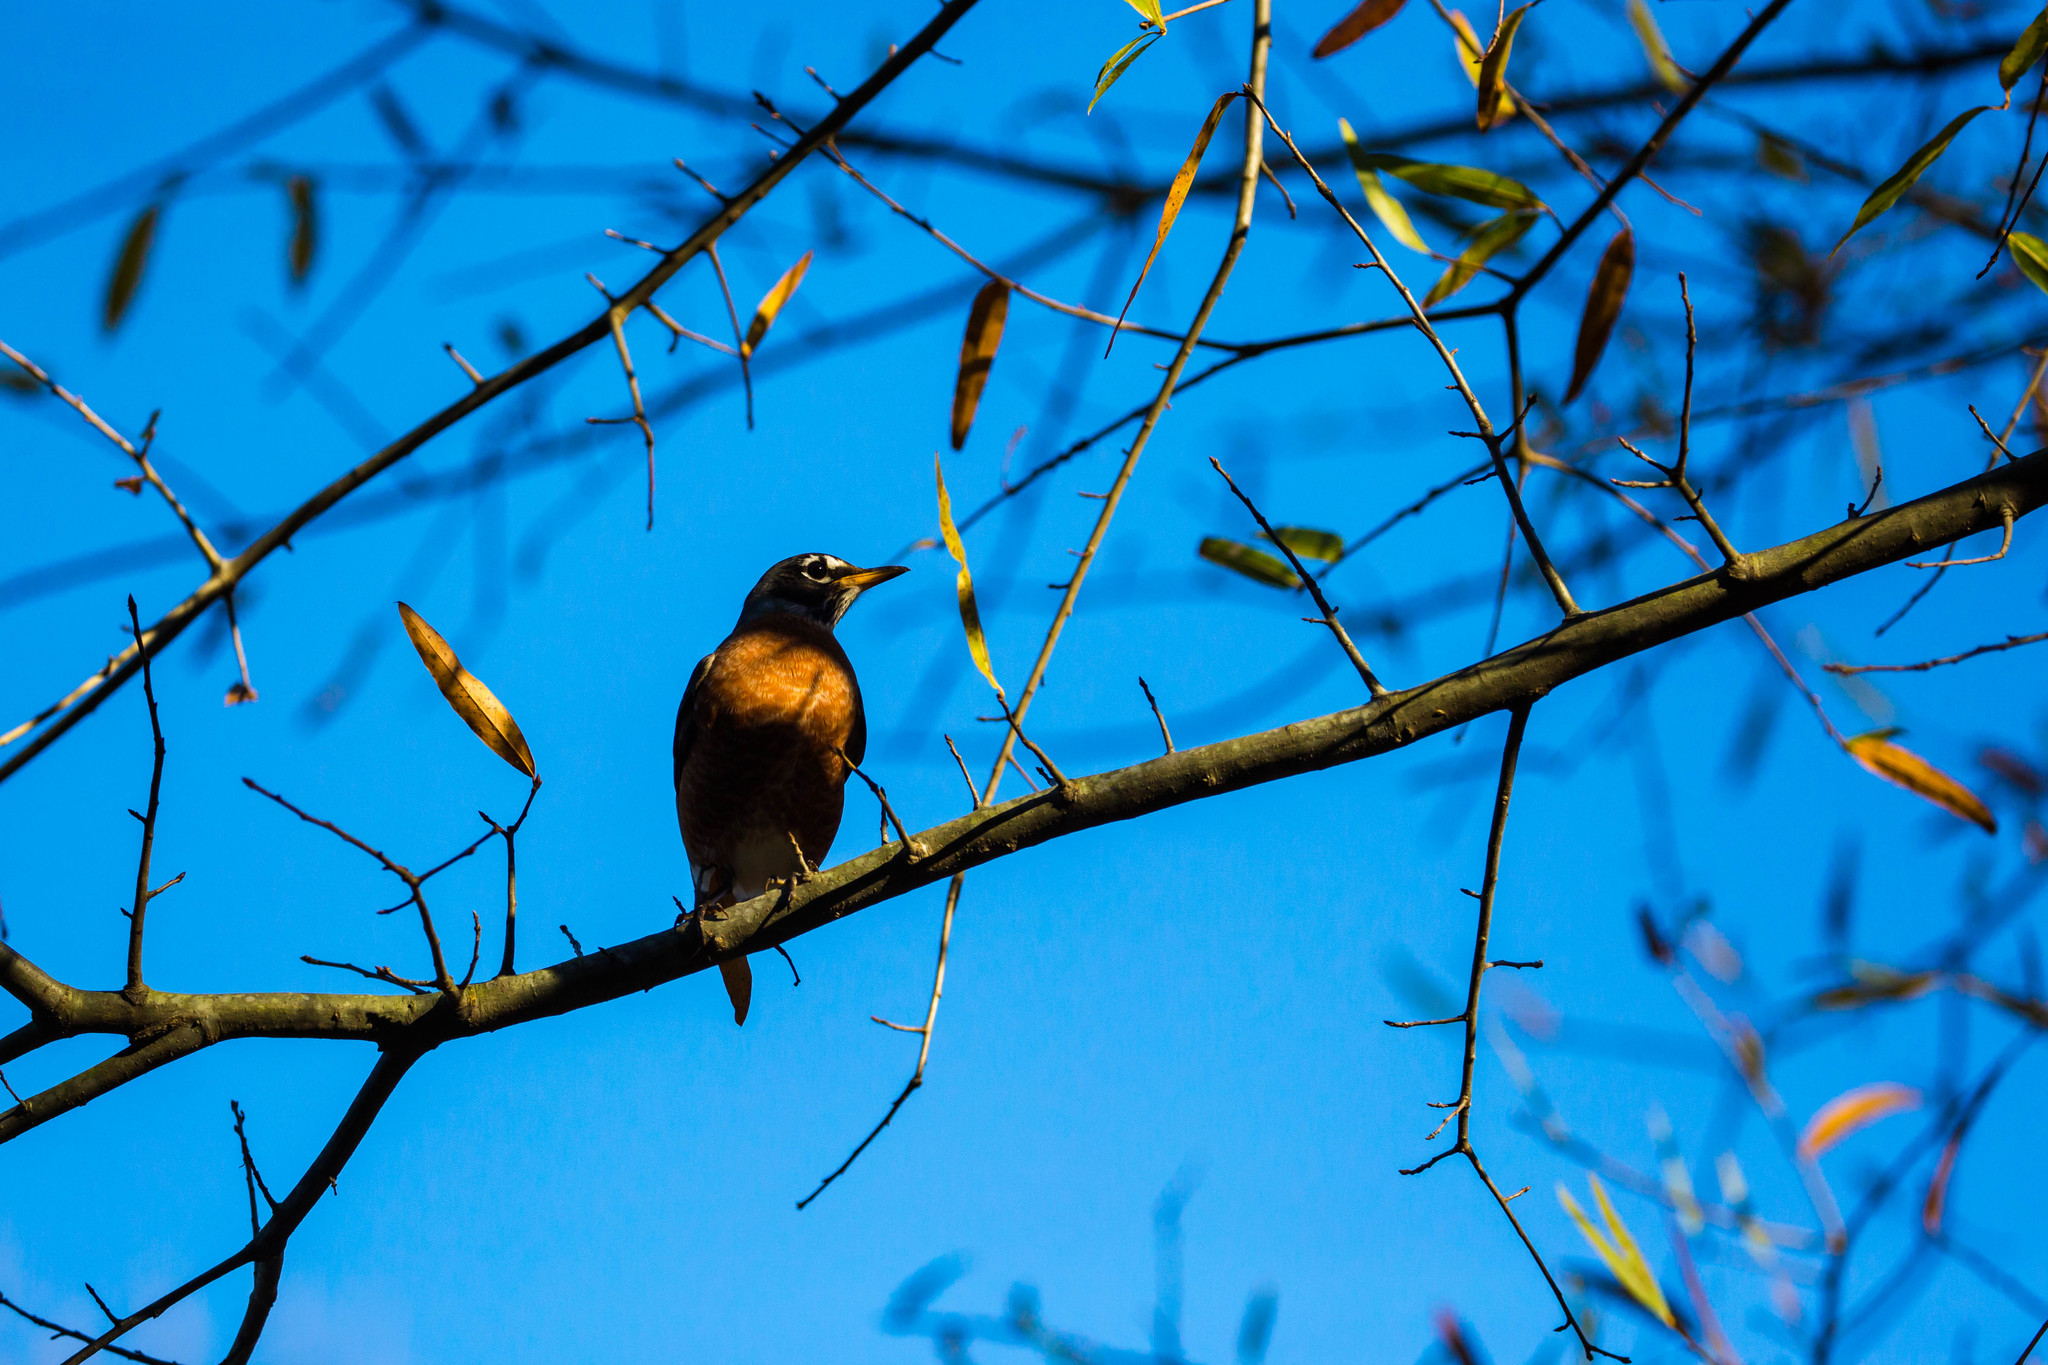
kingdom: Animalia
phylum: Chordata
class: Aves
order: Passeriformes
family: Turdidae
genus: Turdus
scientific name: Turdus migratorius
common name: American robin
